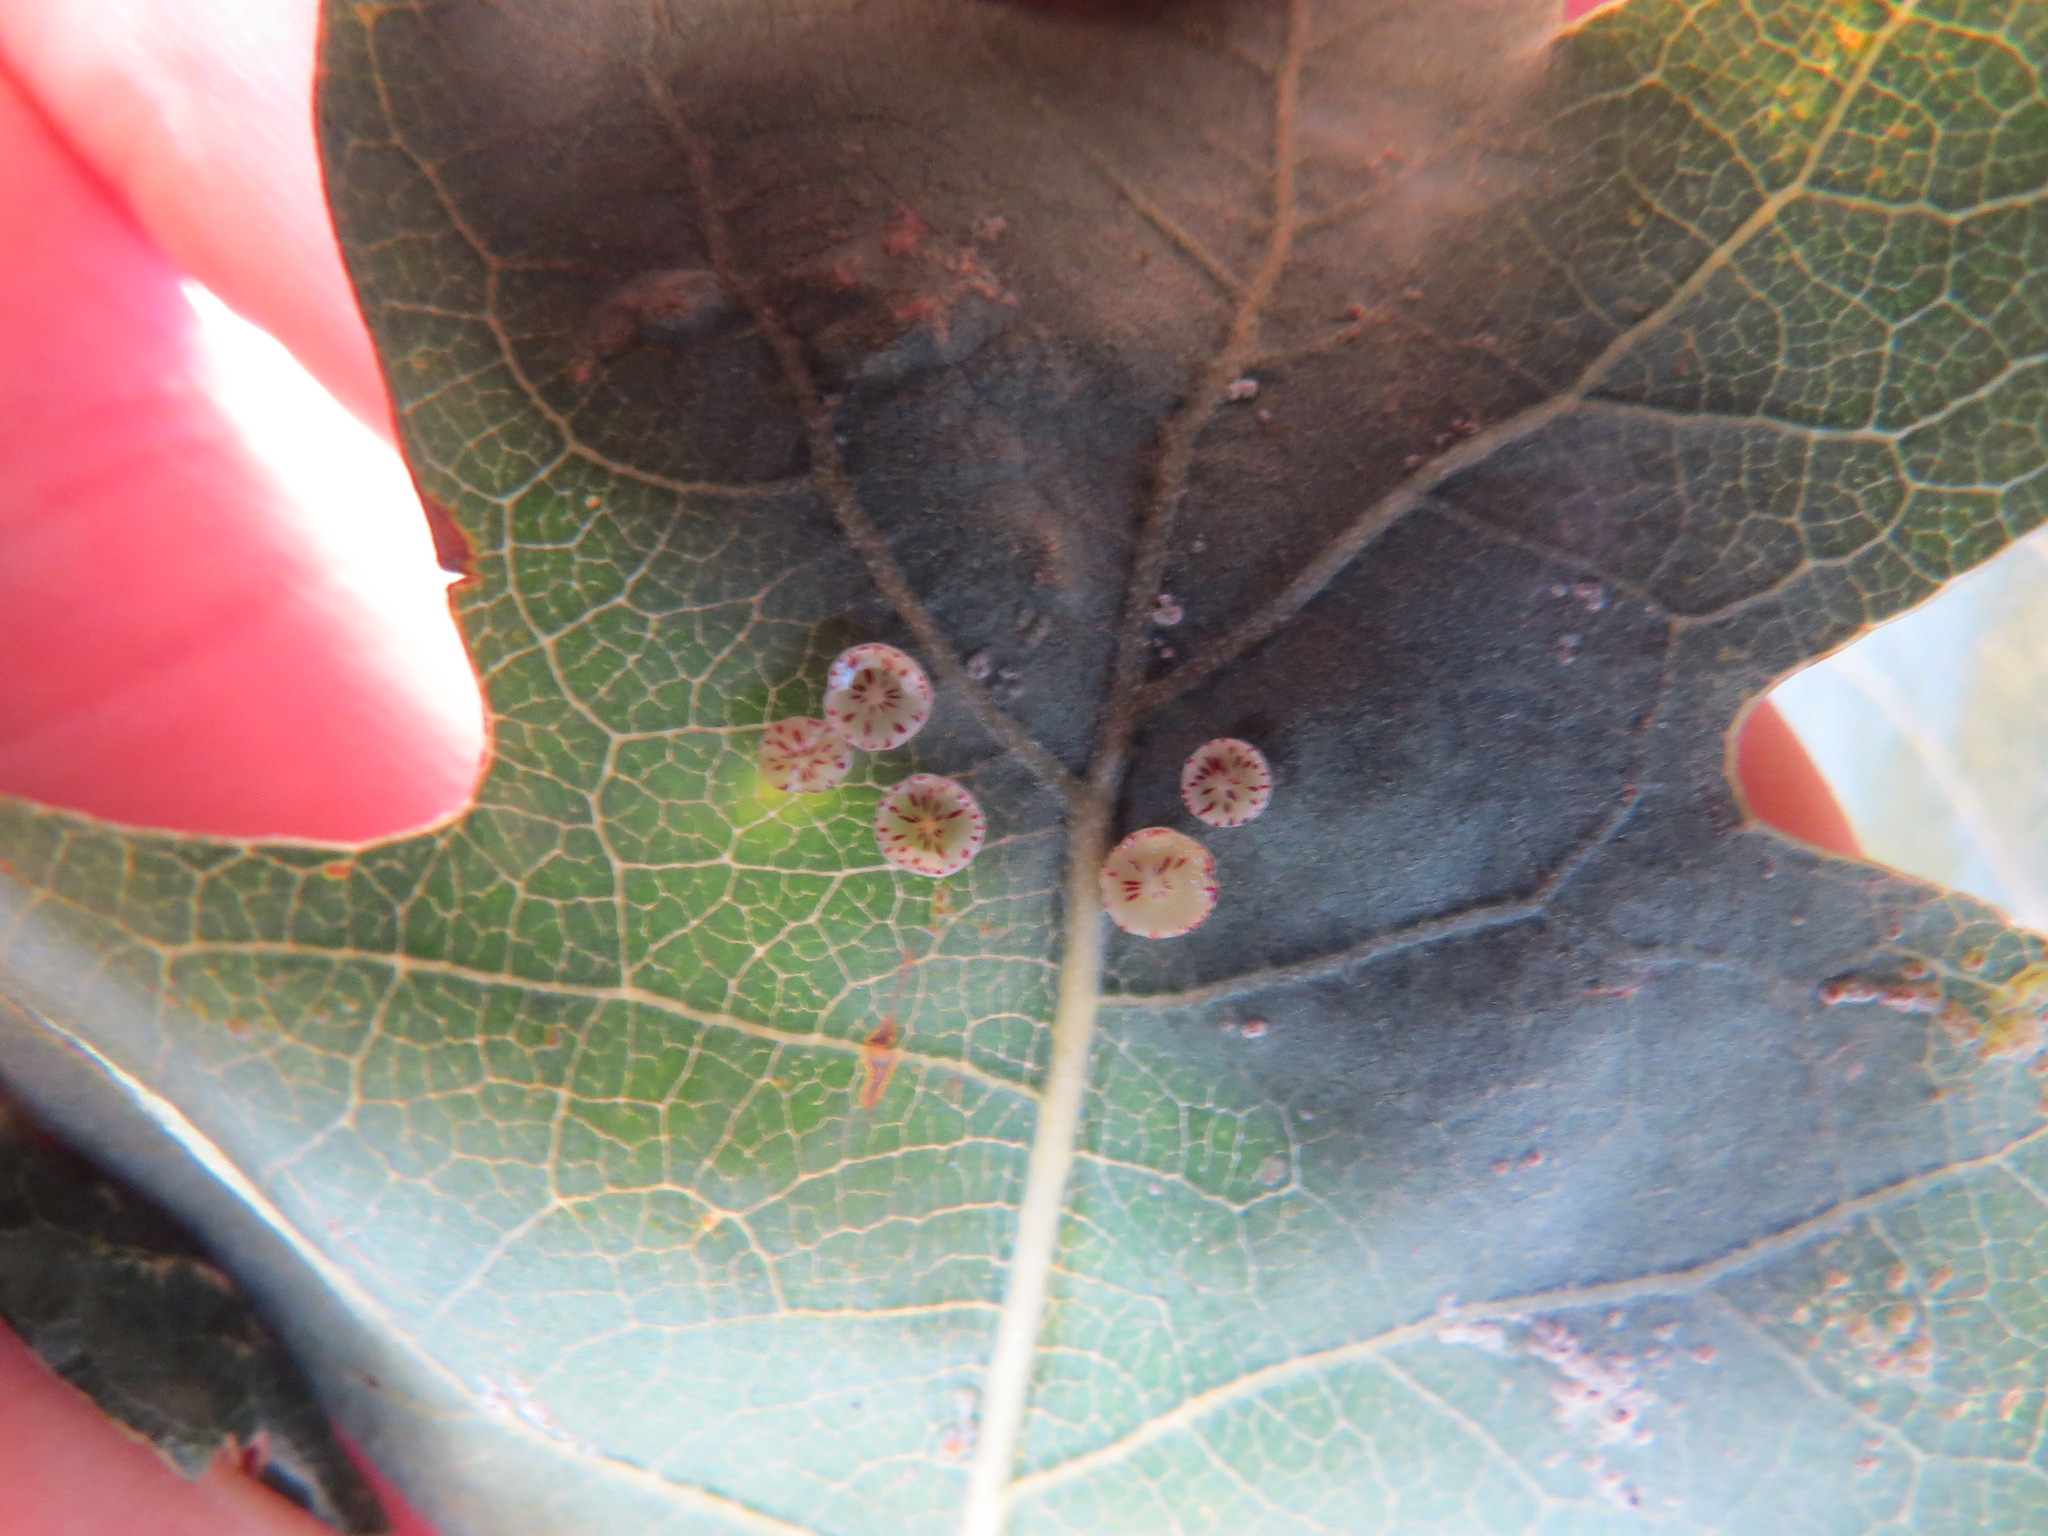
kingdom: Animalia
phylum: Arthropoda
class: Insecta
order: Hymenoptera
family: Cynipidae
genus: Andricus
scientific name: Andricus
